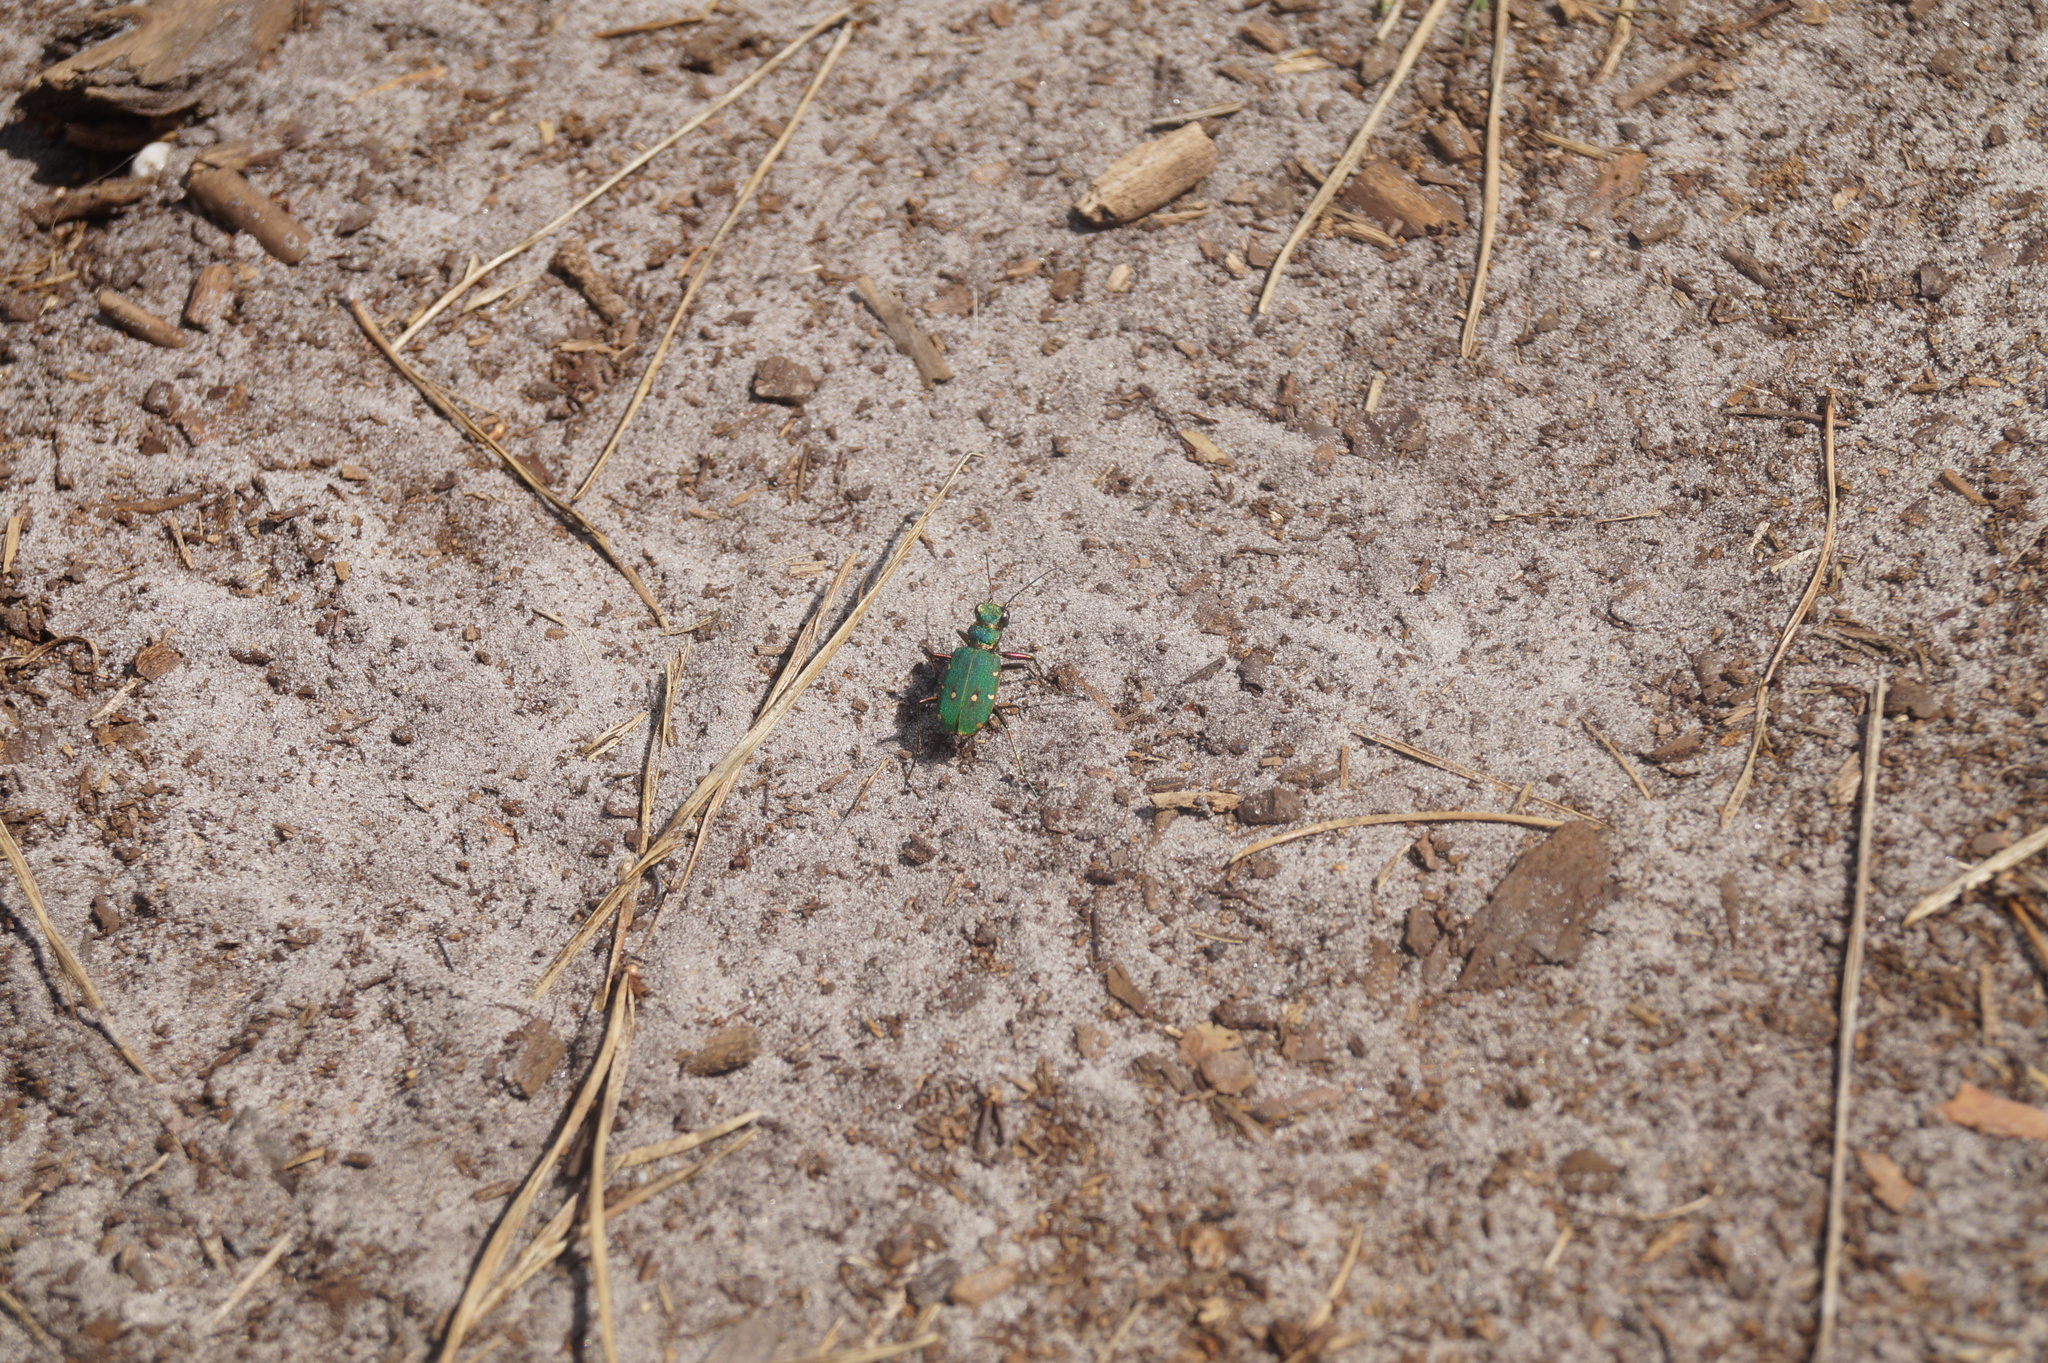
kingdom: Animalia
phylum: Arthropoda
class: Insecta
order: Coleoptera
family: Carabidae
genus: Cicindela
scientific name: Cicindela campestris
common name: Common tiger beetle
